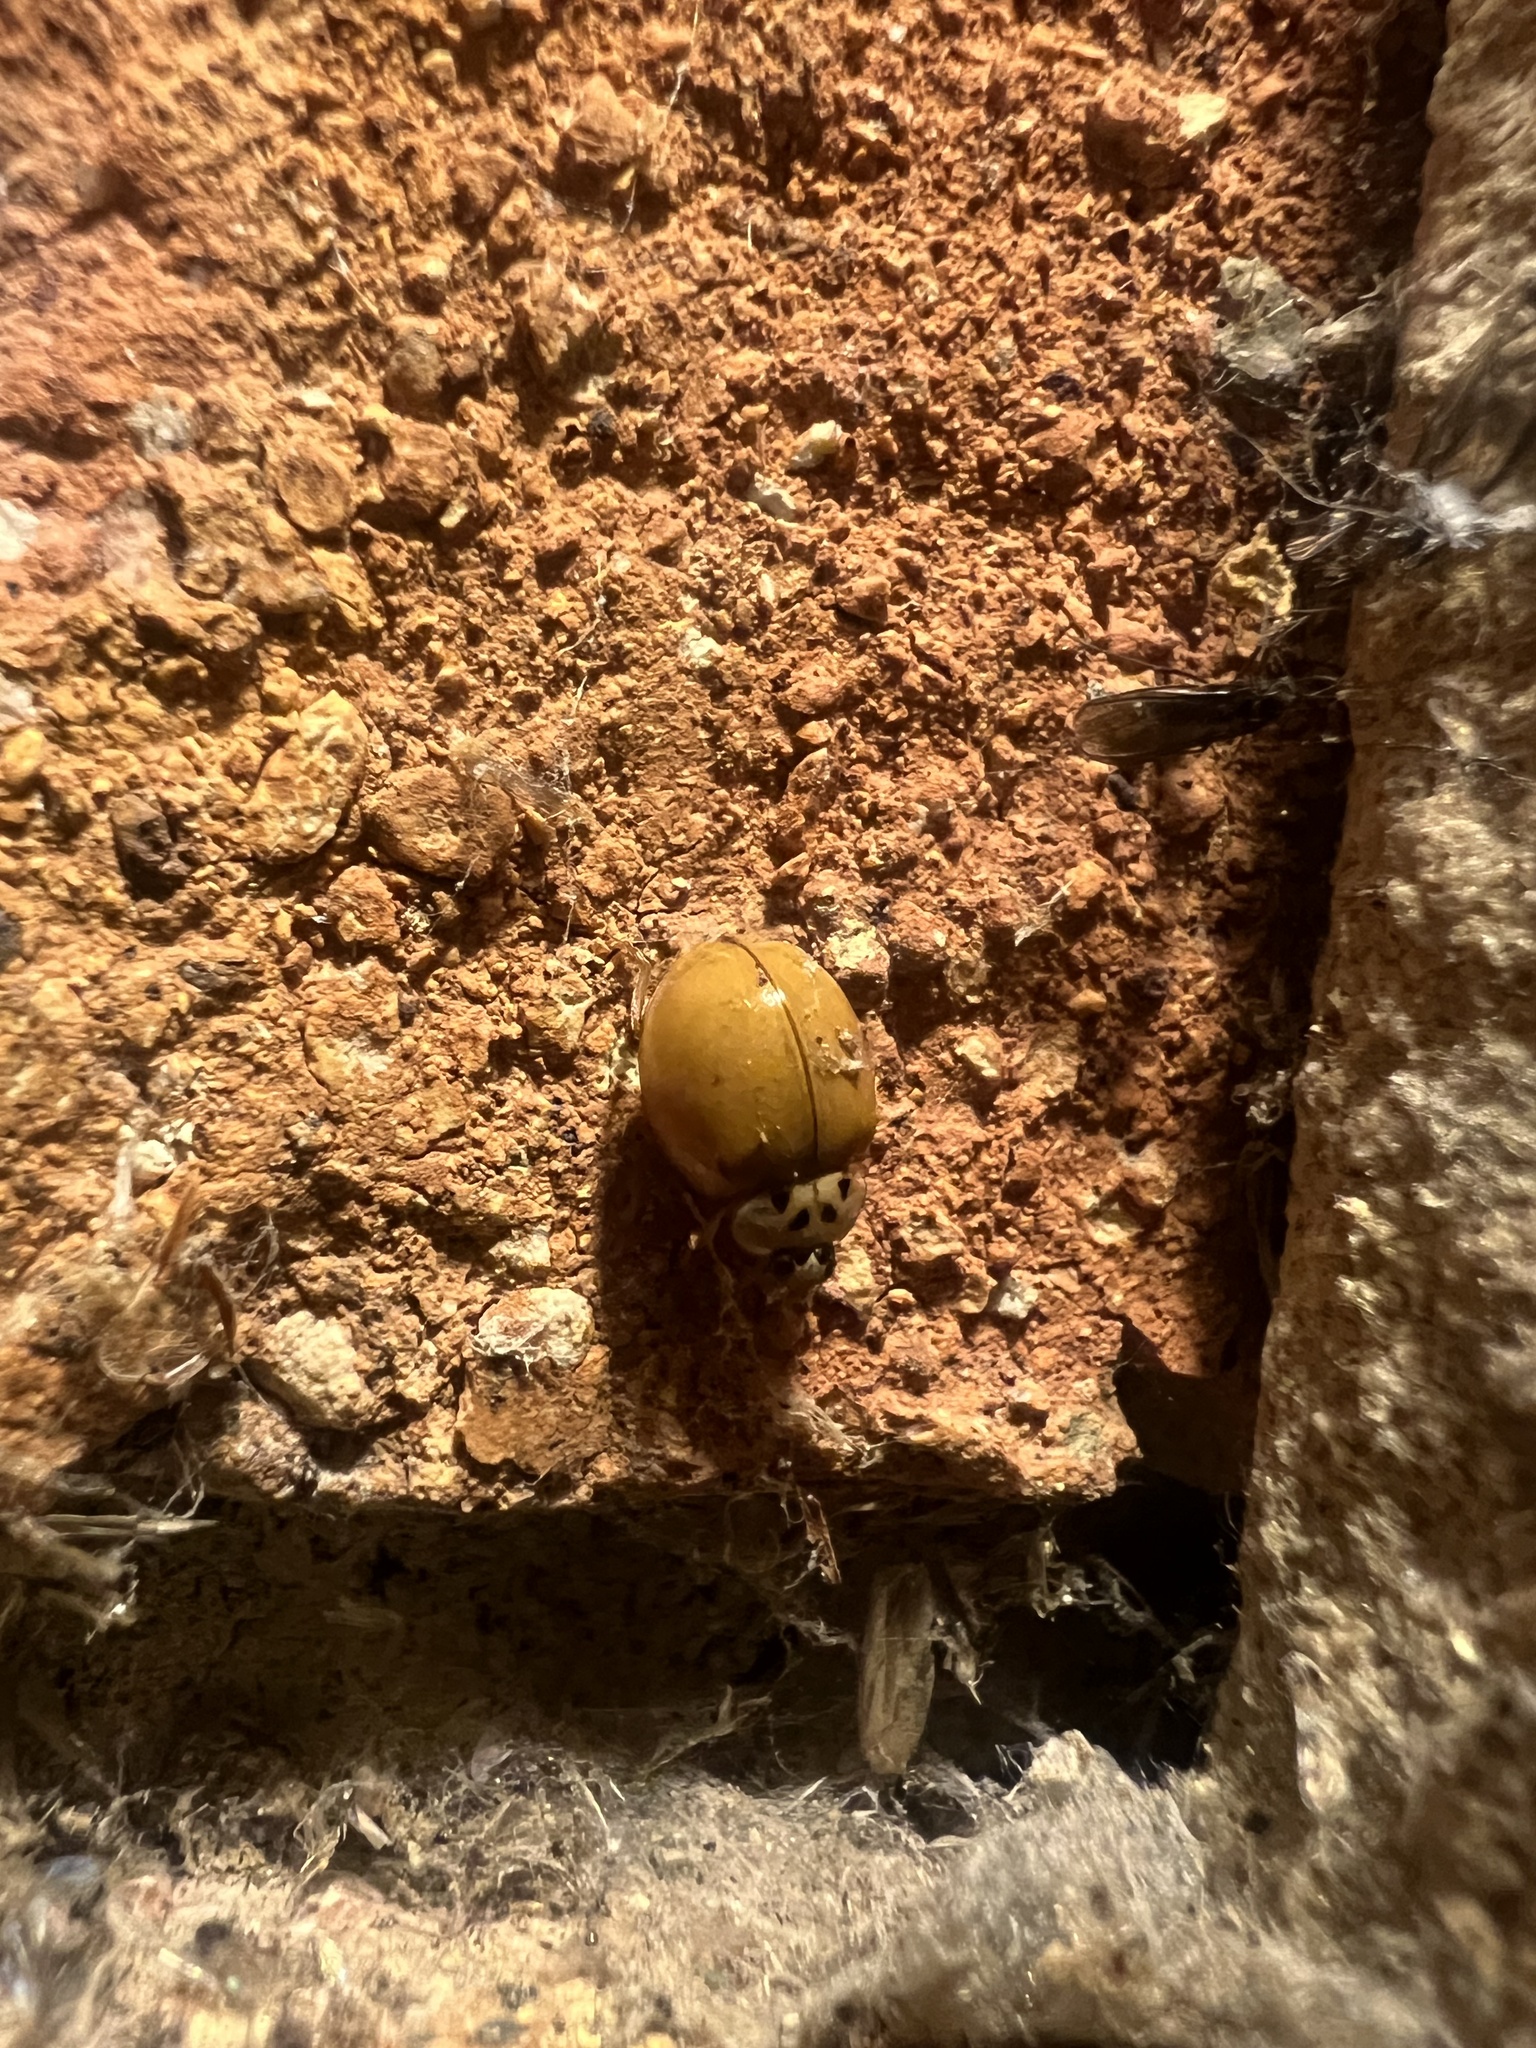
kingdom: Animalia
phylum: Arthropoda
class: Insecta
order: Coleoptera
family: Coccinellidae
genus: Harmonia
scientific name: Harmonia axyridis
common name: Harlequin ladybird
